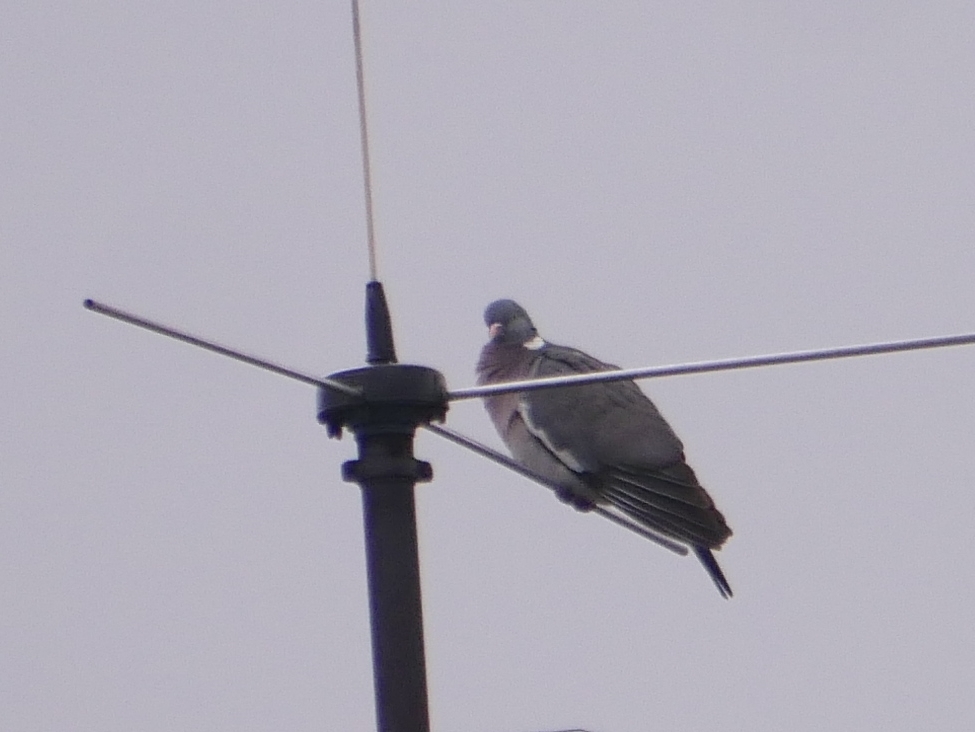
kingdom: Animalia
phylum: Chordata
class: Aves
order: Columbiformes
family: Columbidae
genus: Columba
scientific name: Columba palumbus
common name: Common wood pigeon
